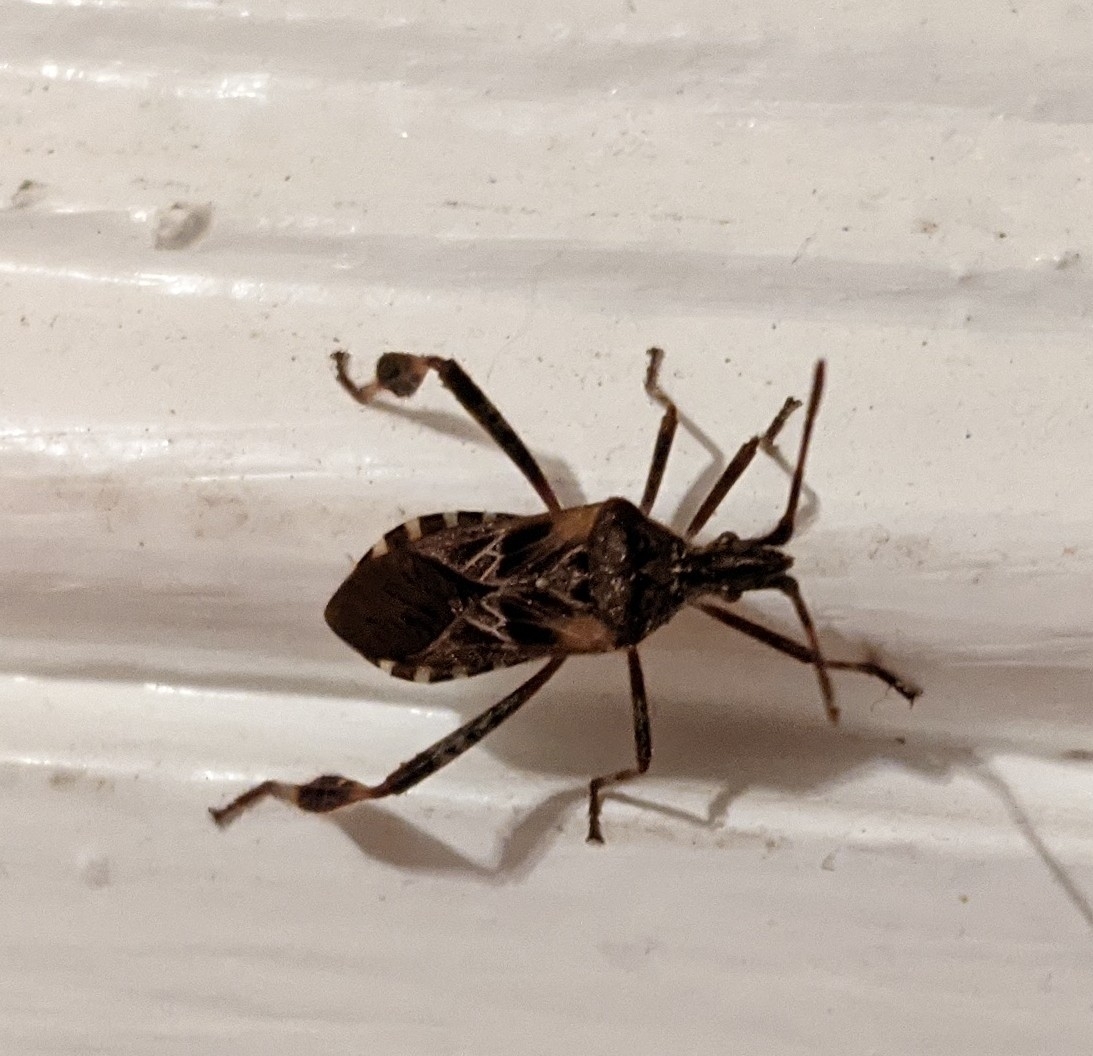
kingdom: Animalia
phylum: Arthropoda
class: Insecta
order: Hemiptera
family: Coreidae
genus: Leptoglossus
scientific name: Leptoglossus occidentalis
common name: Western conifer-seed bug
